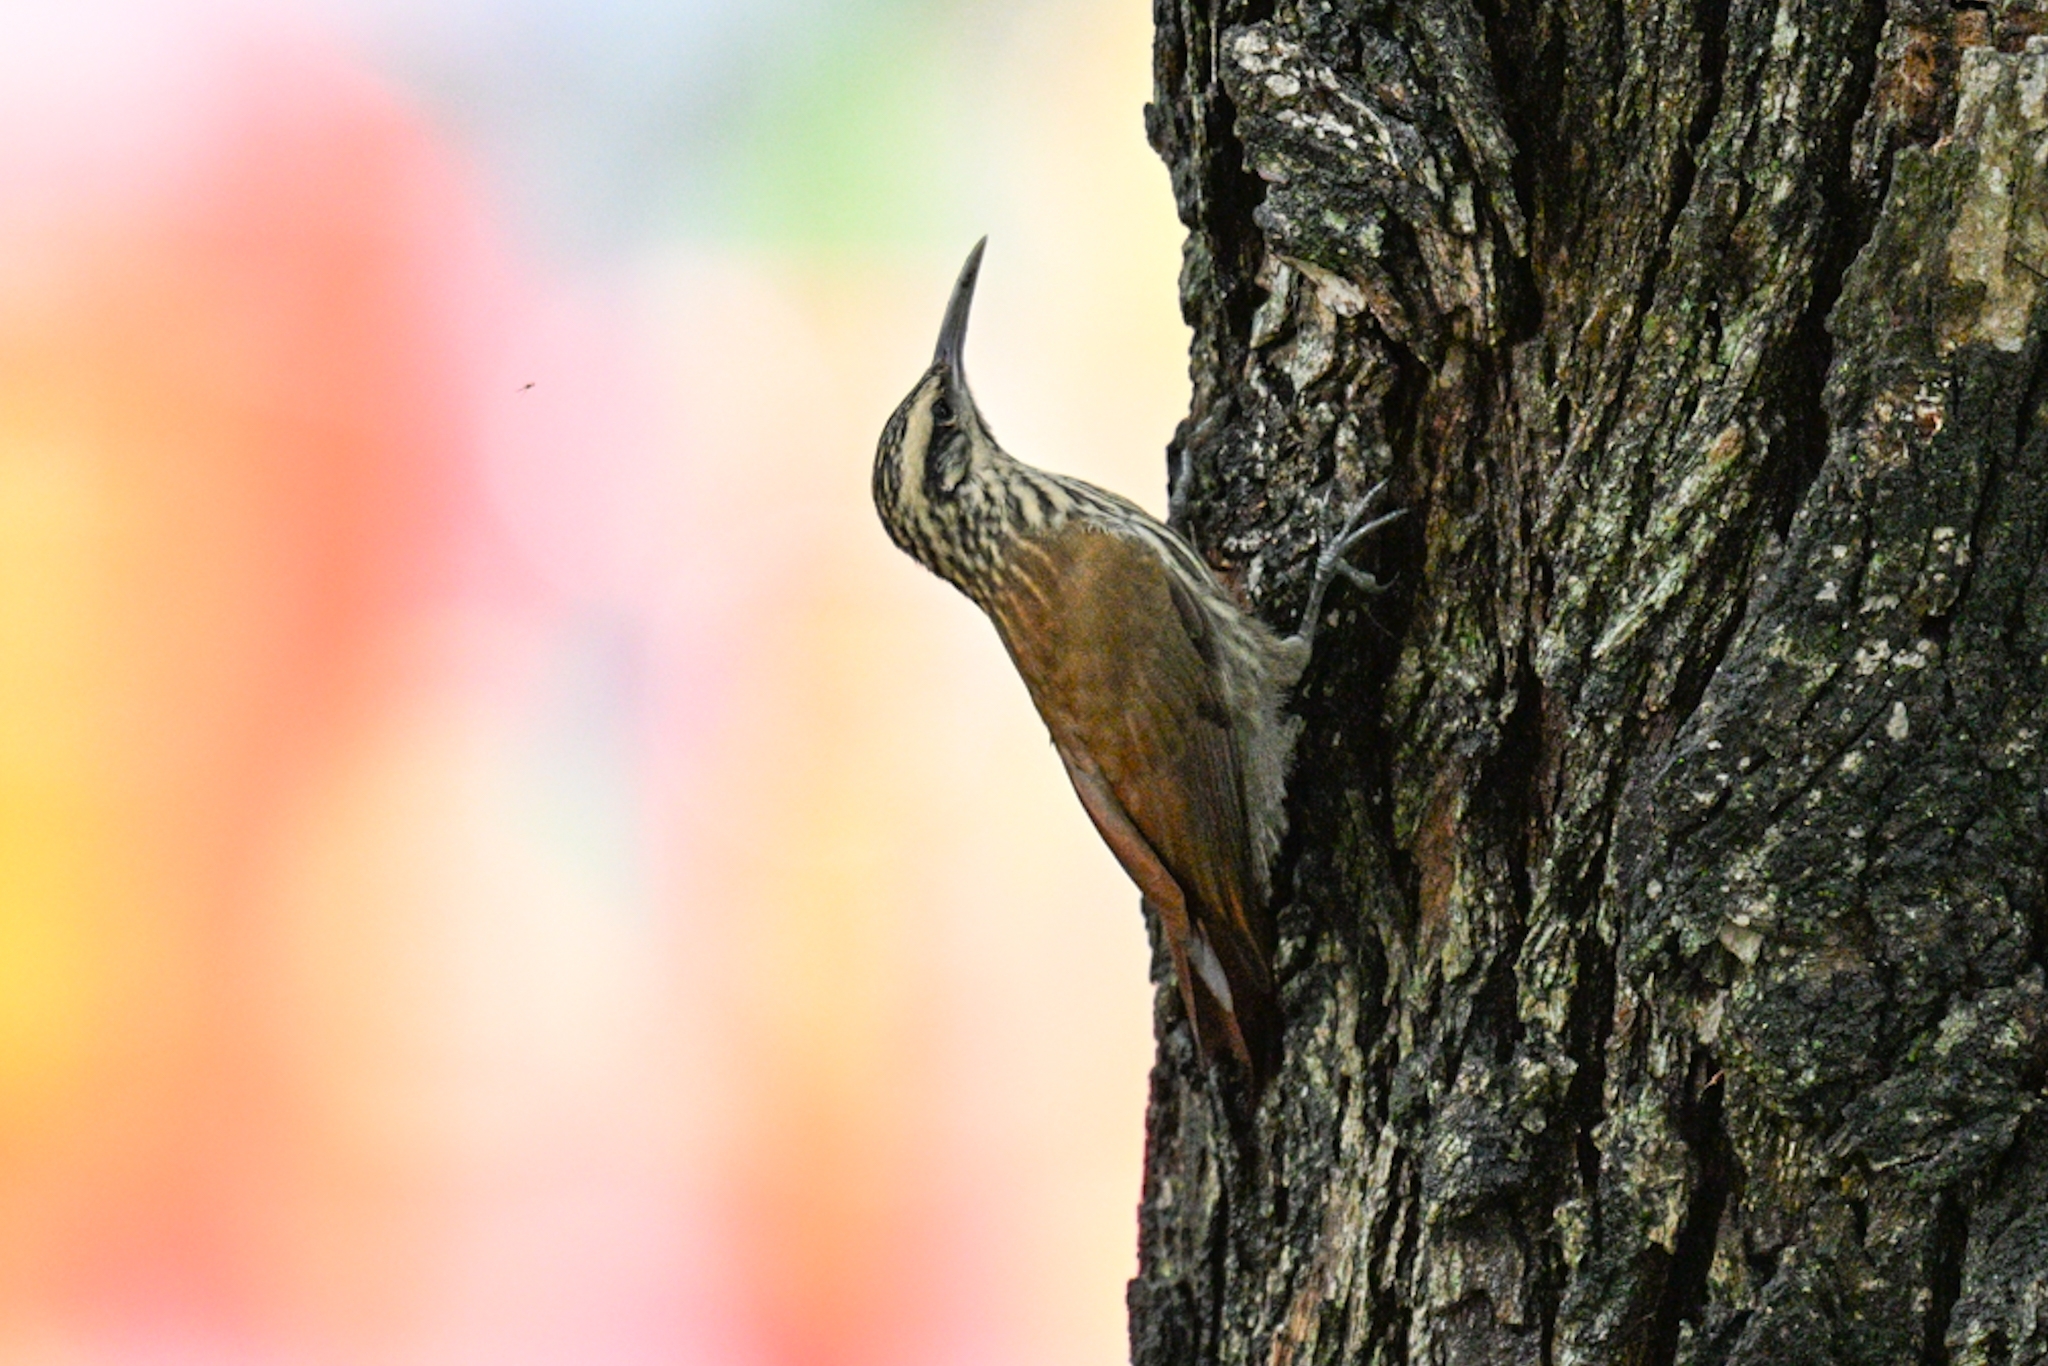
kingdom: Animalia
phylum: Chordata
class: Aves
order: Passeriformes
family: Furnariidae
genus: Lepidocolaptes
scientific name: Lepidocolaptes angustirostris
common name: Narrow-billed woodcreeper
